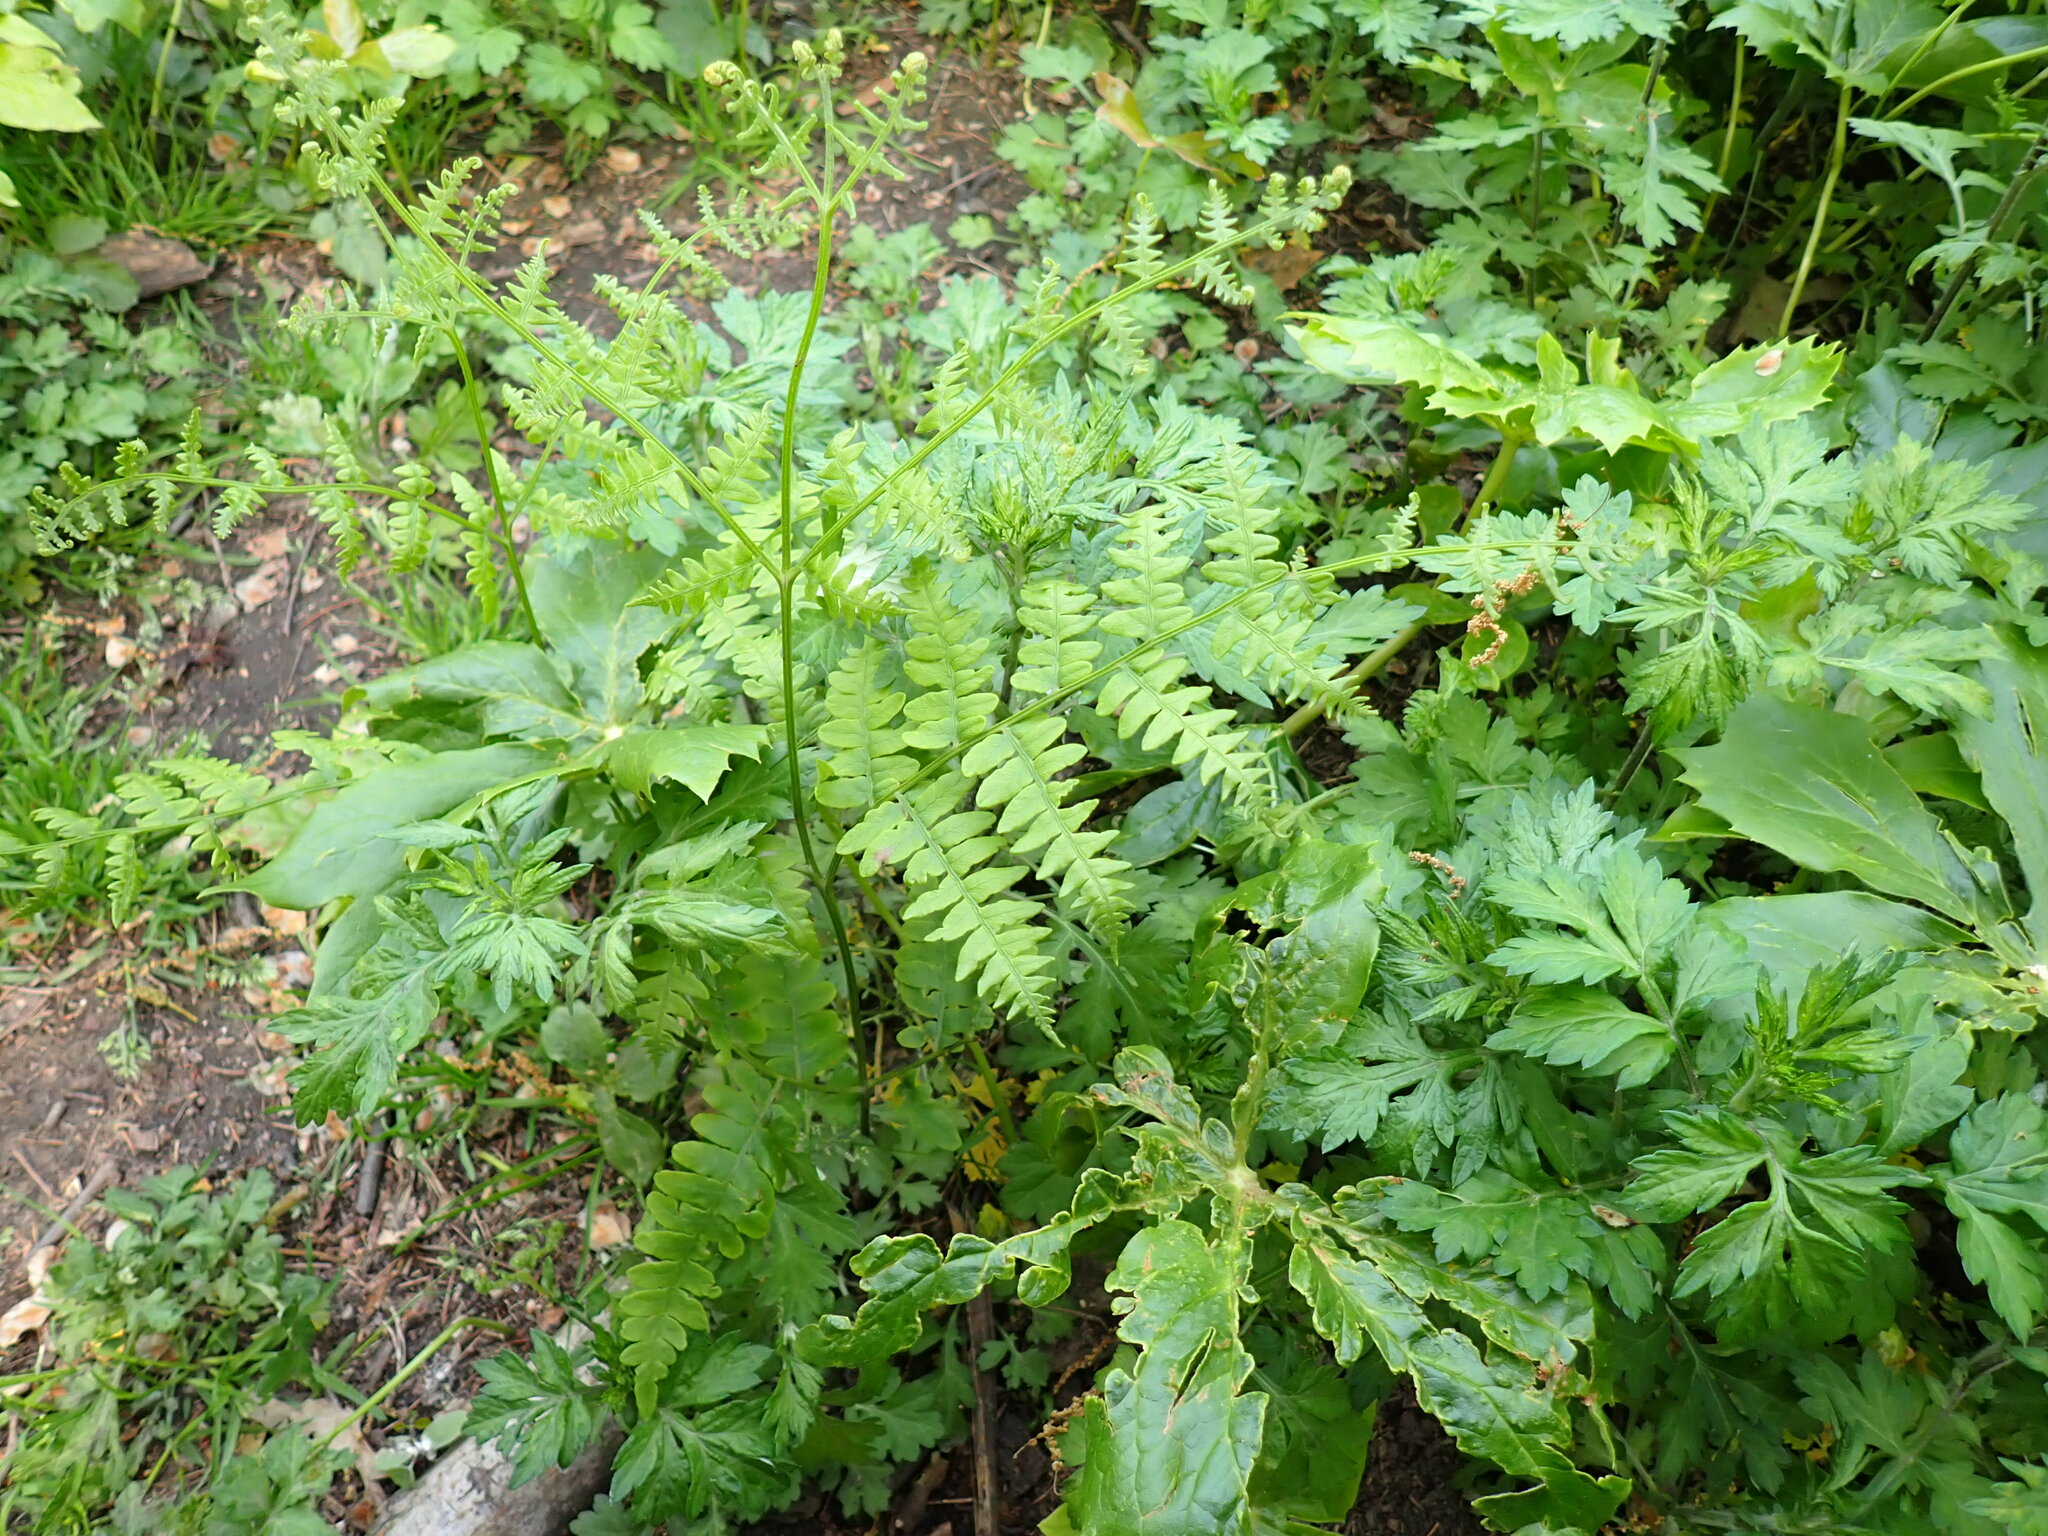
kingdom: Plantae
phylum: Tracheophyta
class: Polypodiopsida
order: Polypodiales
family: Dennstaedtiaceae
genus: Pteridium
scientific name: Pteridium aquilinum
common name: Bracken
